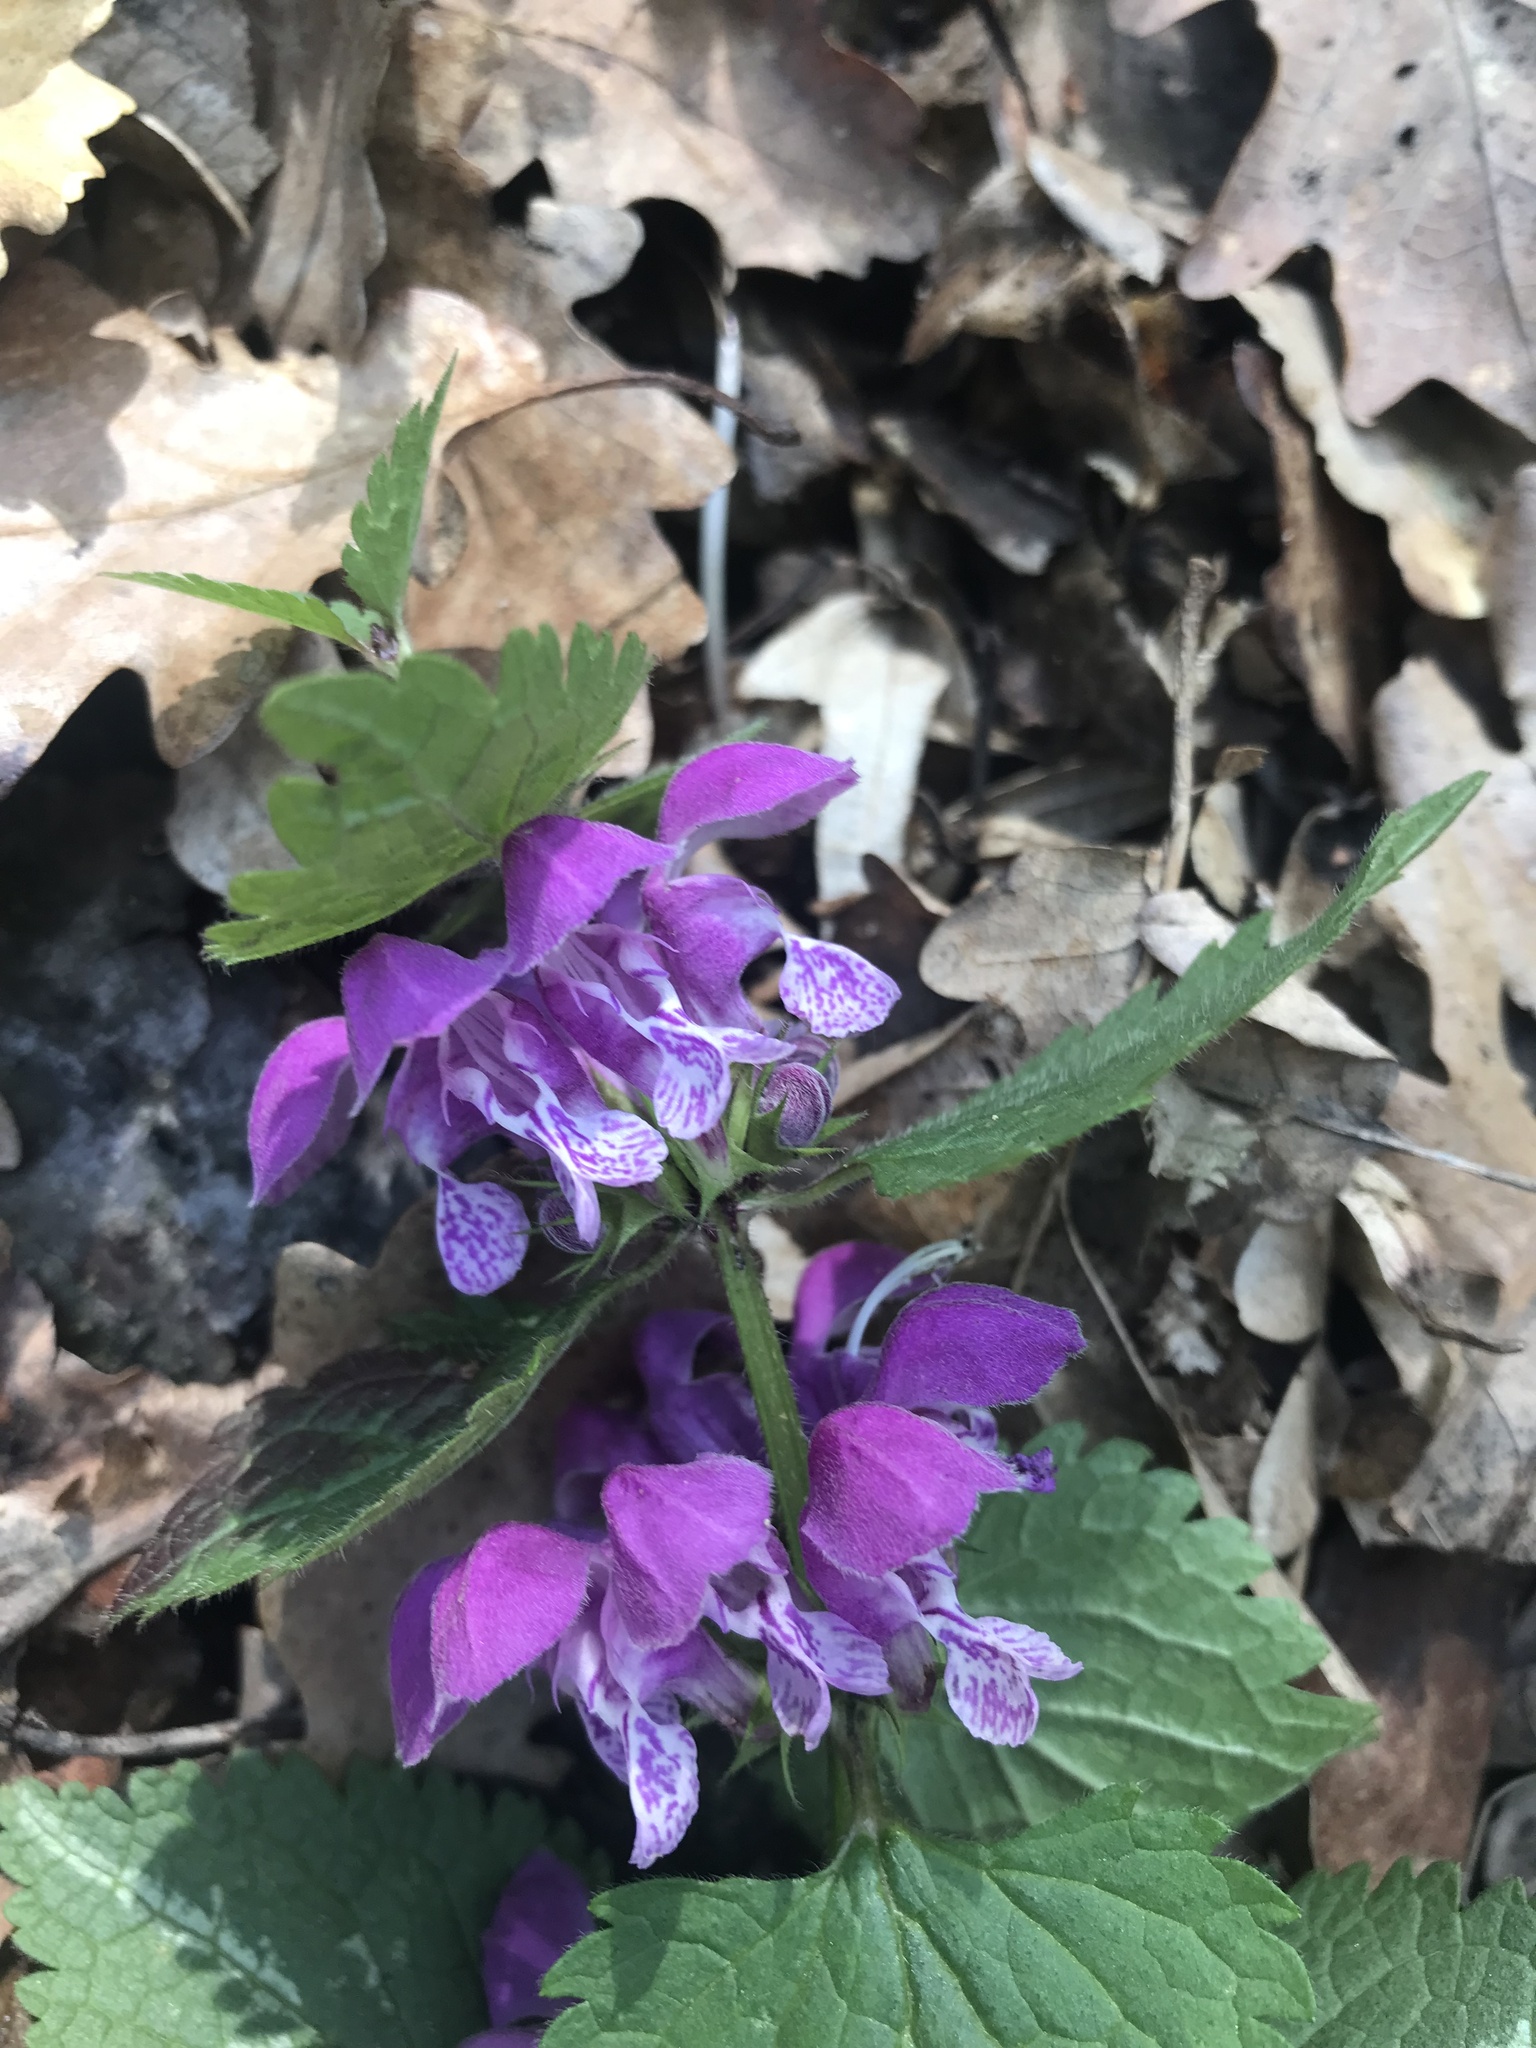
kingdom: Plantae
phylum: Tracheophyta
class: Magnoliopsida
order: Lamiales
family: Lamiaceae
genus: Lamium
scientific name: Lamium maculatum
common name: Spotted dead-nettle
